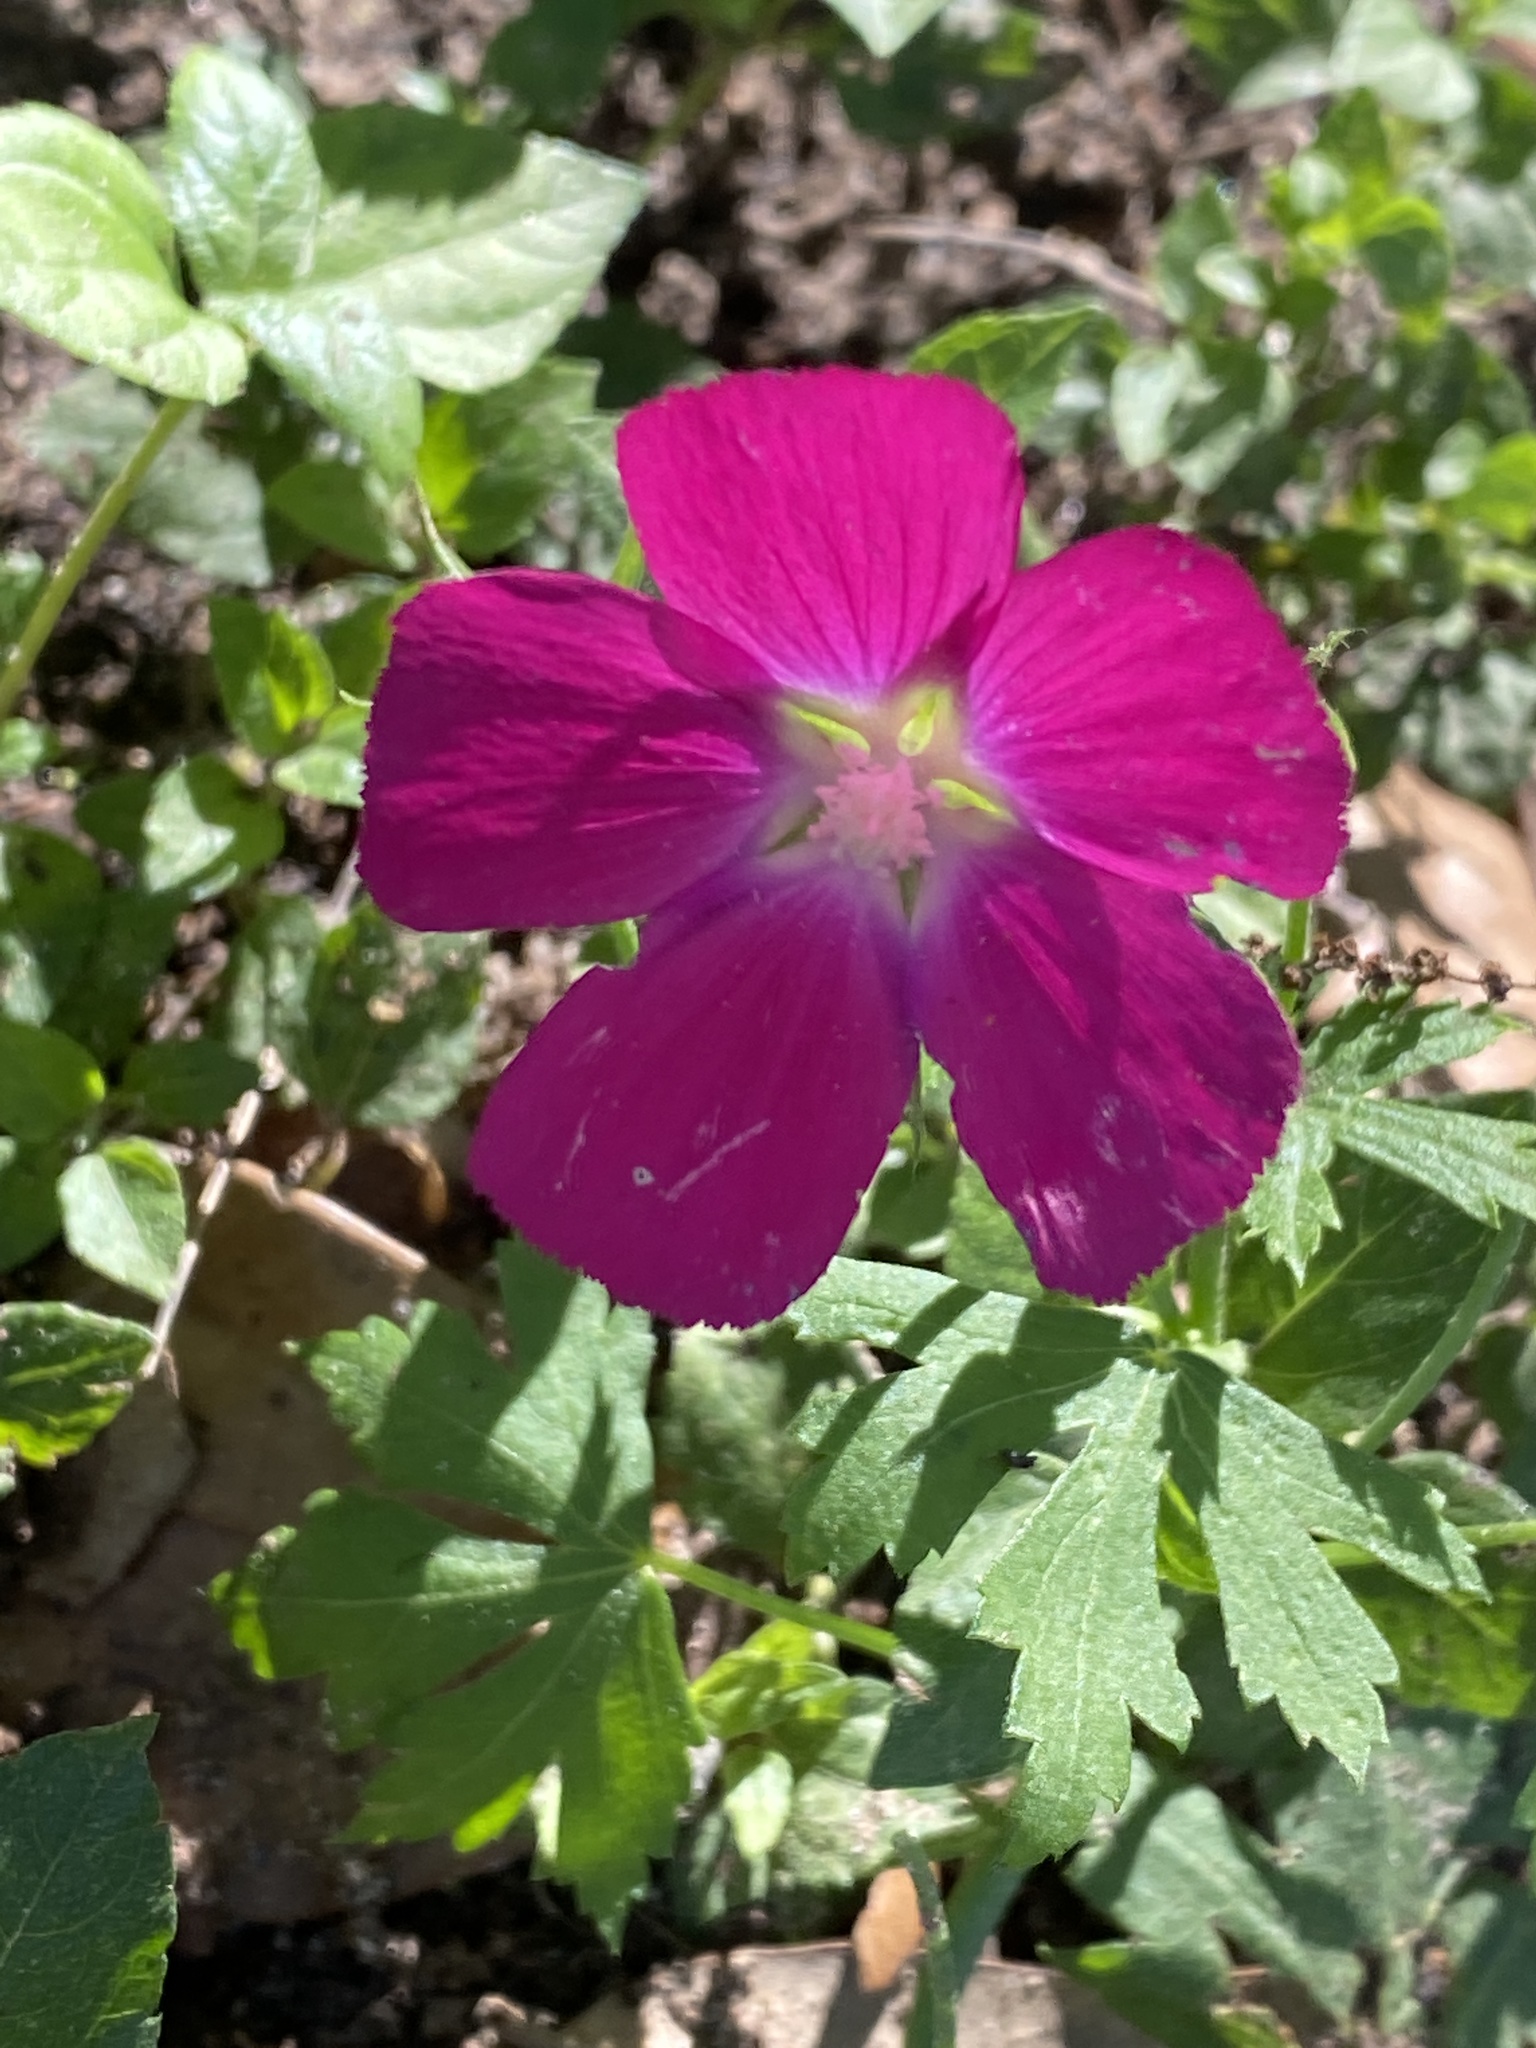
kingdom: Plantae
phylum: Tracheophyta
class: Magnoliopsida
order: Malvales
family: Malvaceae
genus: Callirhoe
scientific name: Callirhoe involucrata
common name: Purple poppy-mallow
